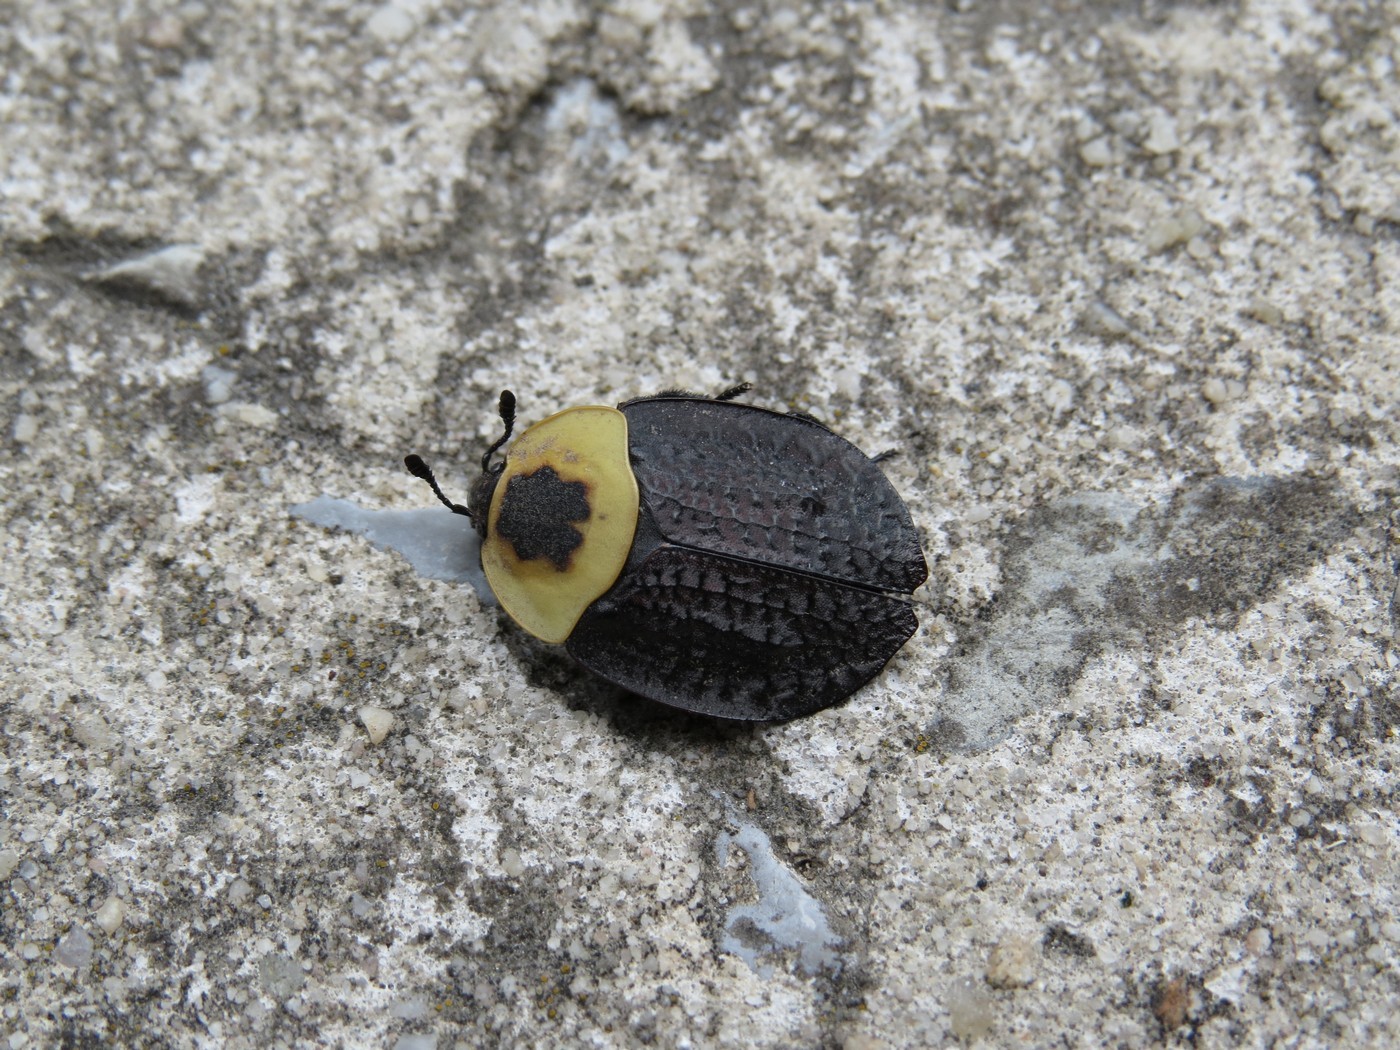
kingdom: Animalia
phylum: Arthropoda
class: Insecta
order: Coleoptera
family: Staphylinidae
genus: Necrophila
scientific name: Necrophila americana
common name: American carrion beetle
